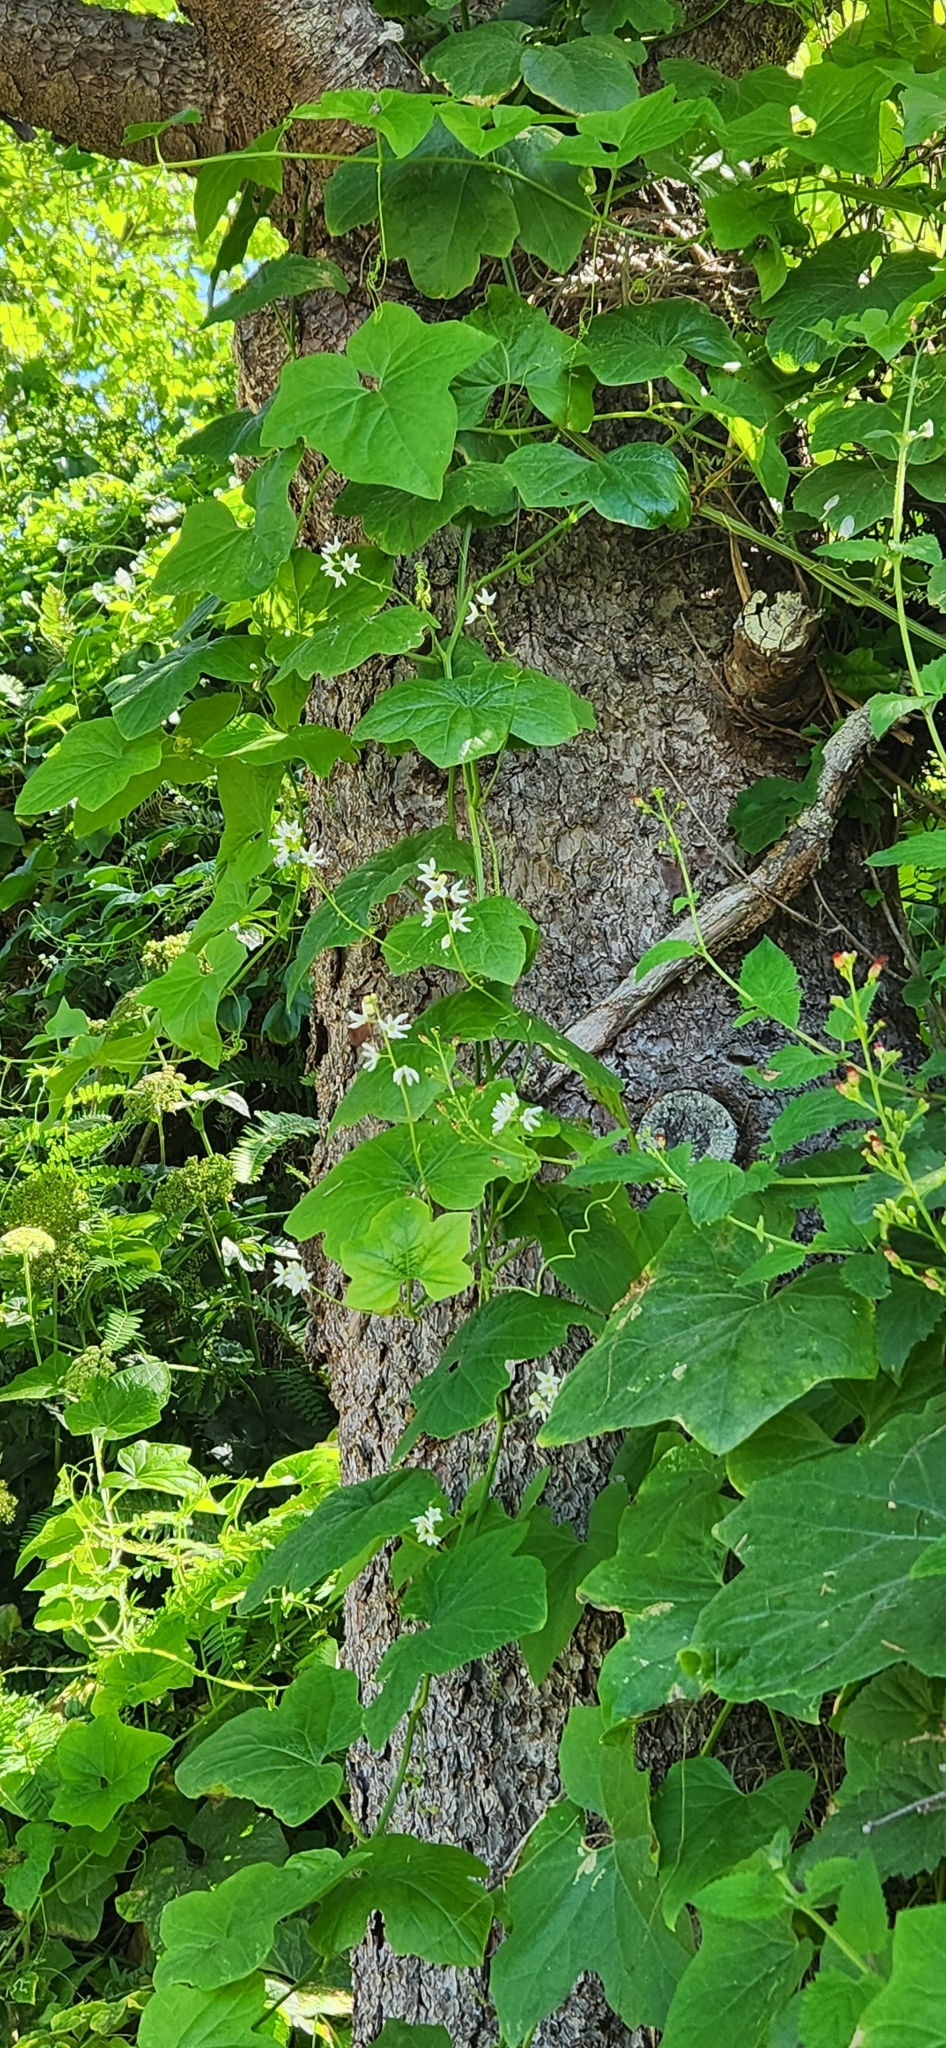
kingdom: Plantae
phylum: Tracheophyta
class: Magnoliopsida
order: Cucurbitales
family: Cucurbitaceae
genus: Marah
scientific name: Marah oregana
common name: Coastal manroot
